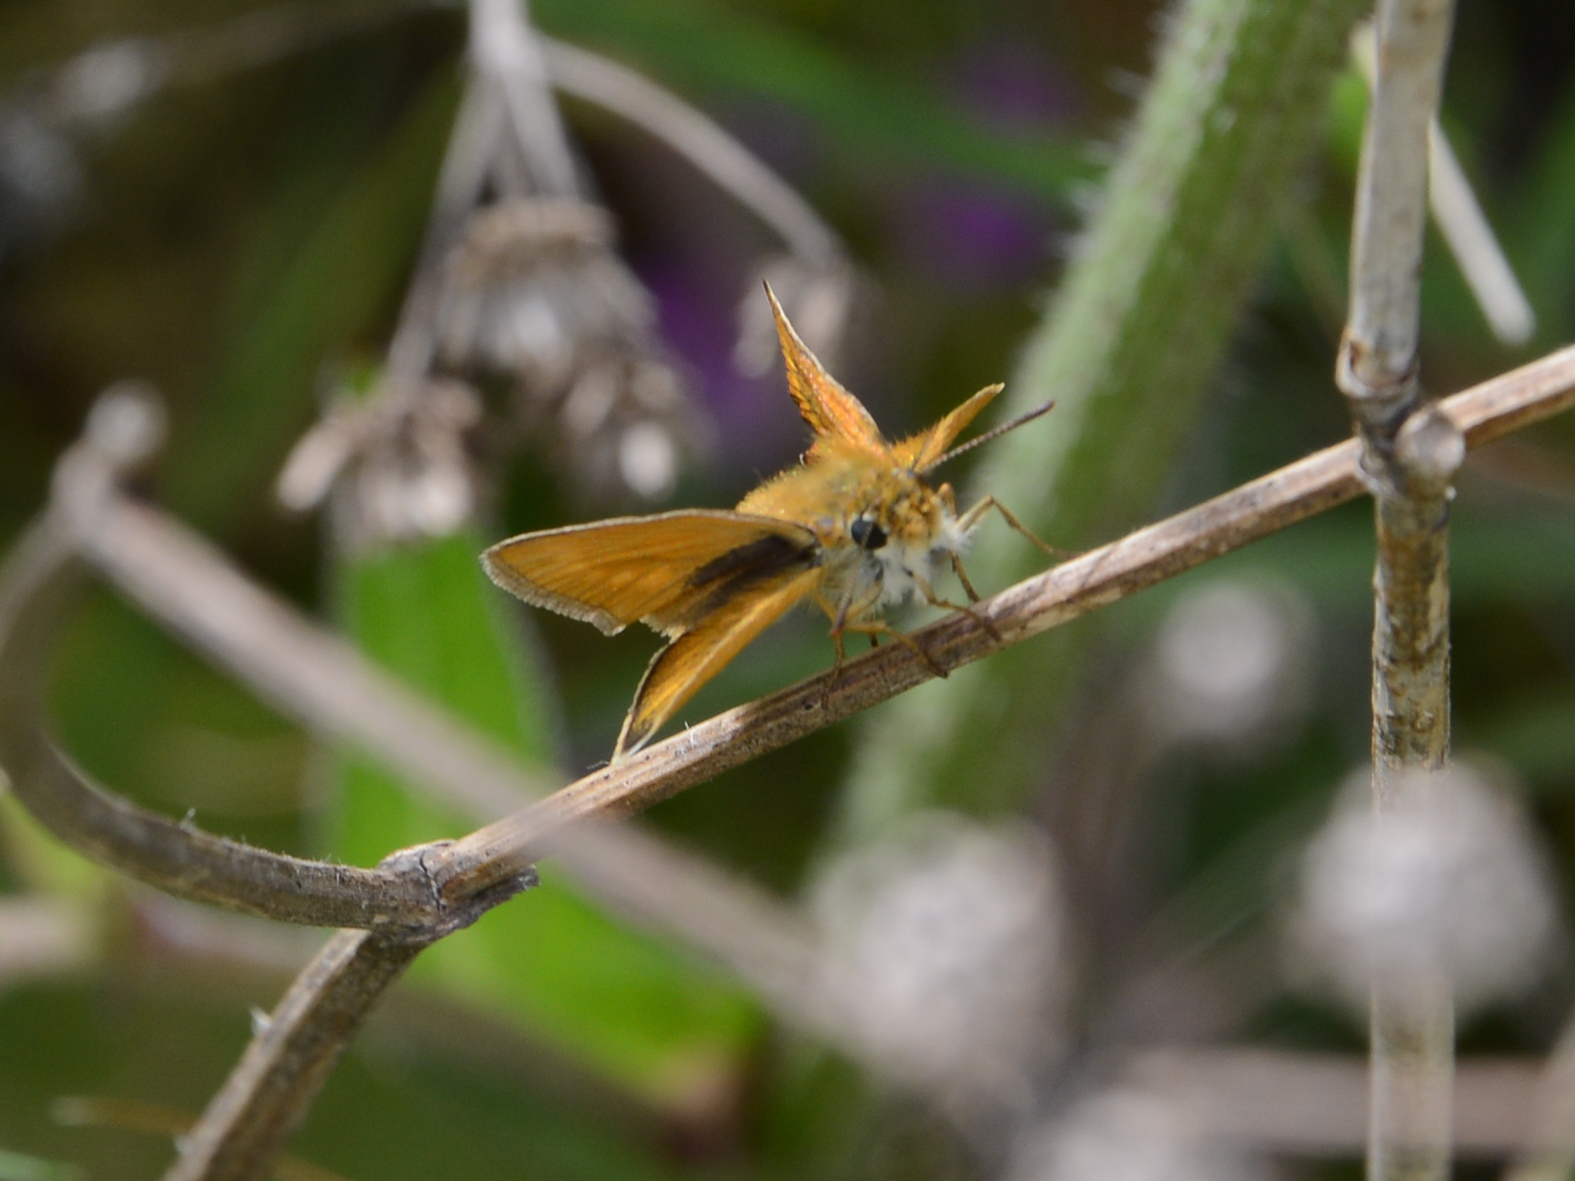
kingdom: Animalia
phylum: Arthropoda
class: Insecta
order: Lepidoptera
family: Hesperiidae
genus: Thymelicus
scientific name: Thymelicus acteon
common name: Lulworth skipper
